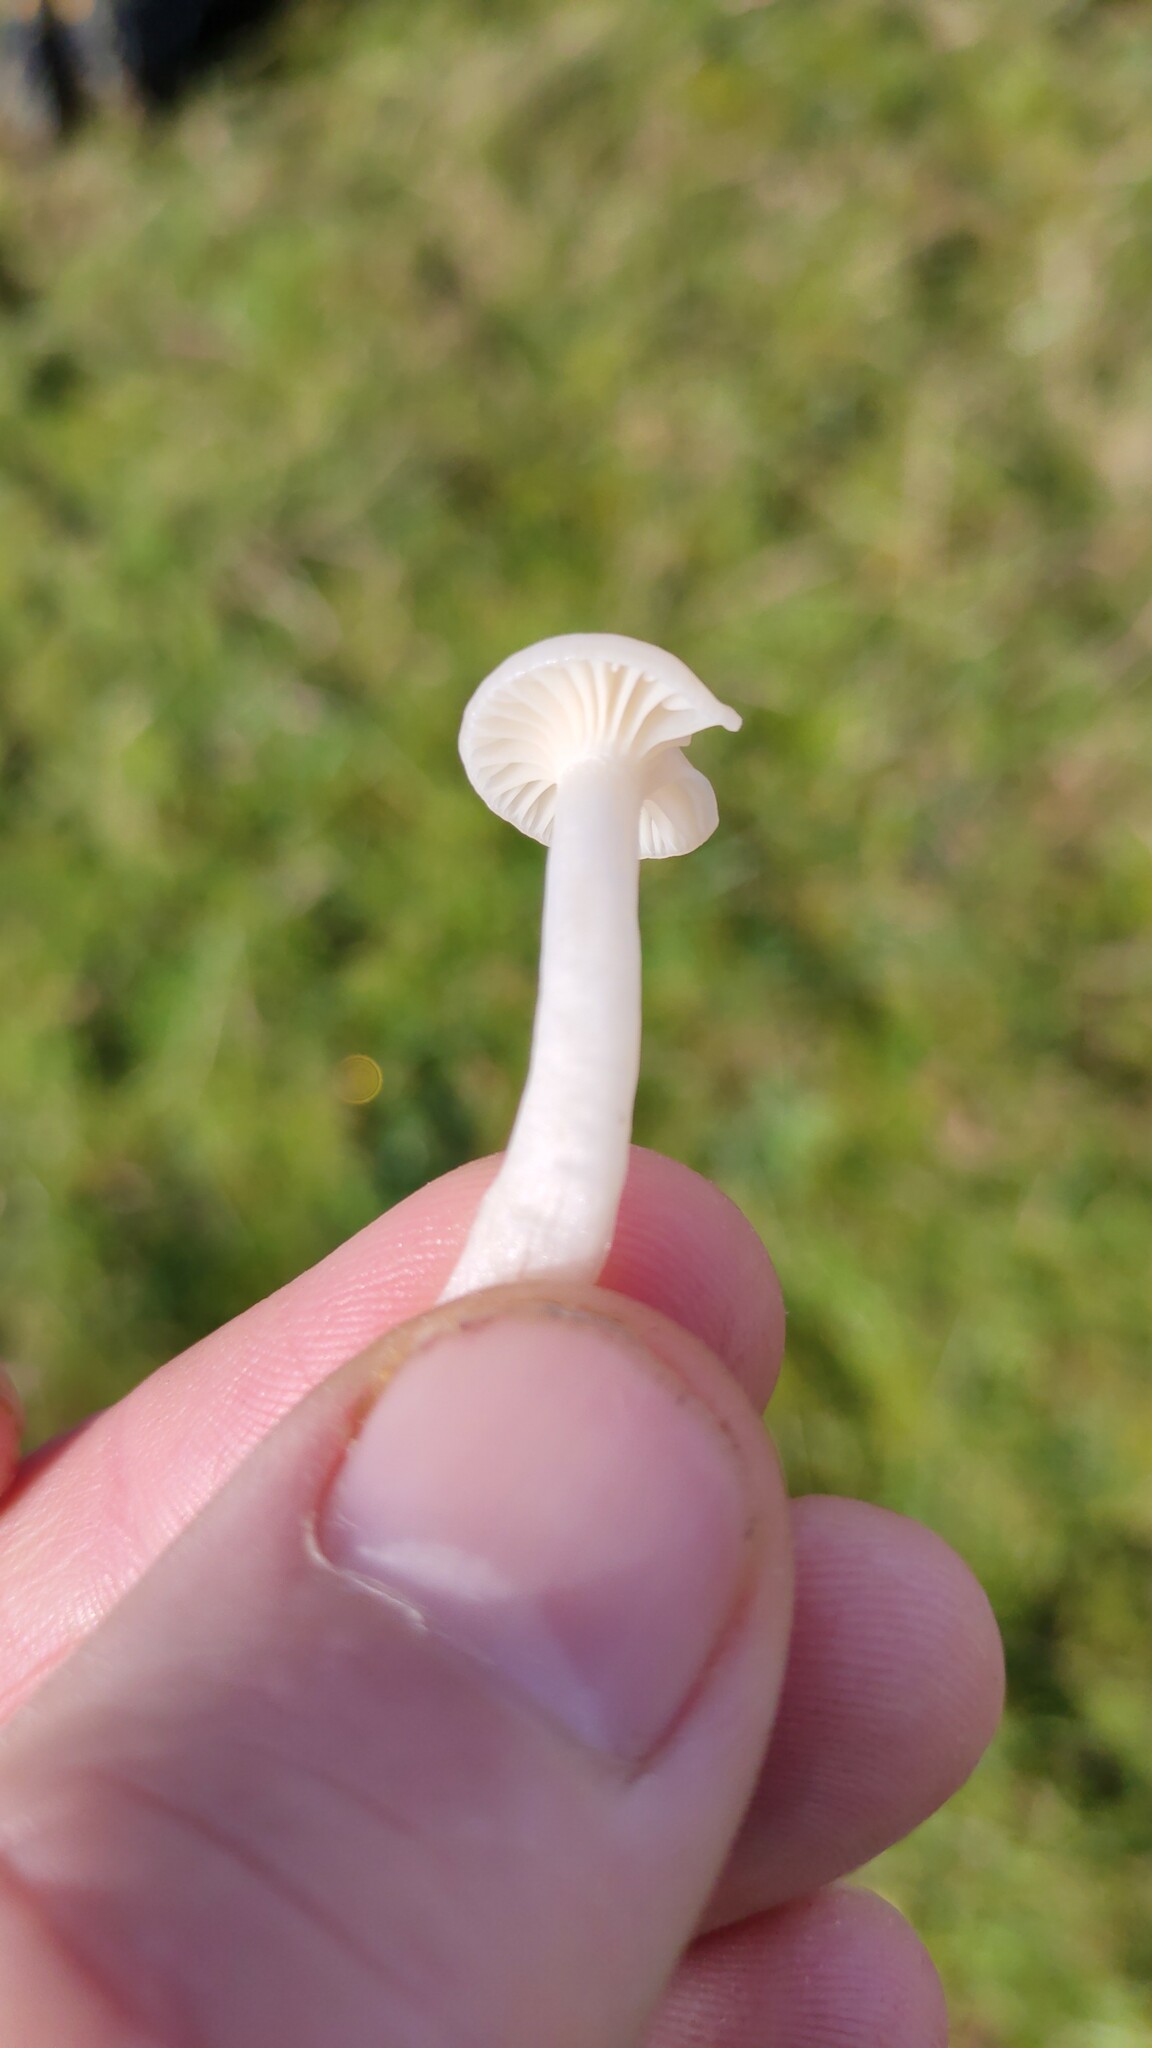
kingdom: Fungi
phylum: Basidiomycota
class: Agaricomycetes
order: Agaricales
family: Hygrophoraceae
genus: Cuphophyllus
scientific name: Cuphophyllus virgineus
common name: Snowy waxcap
